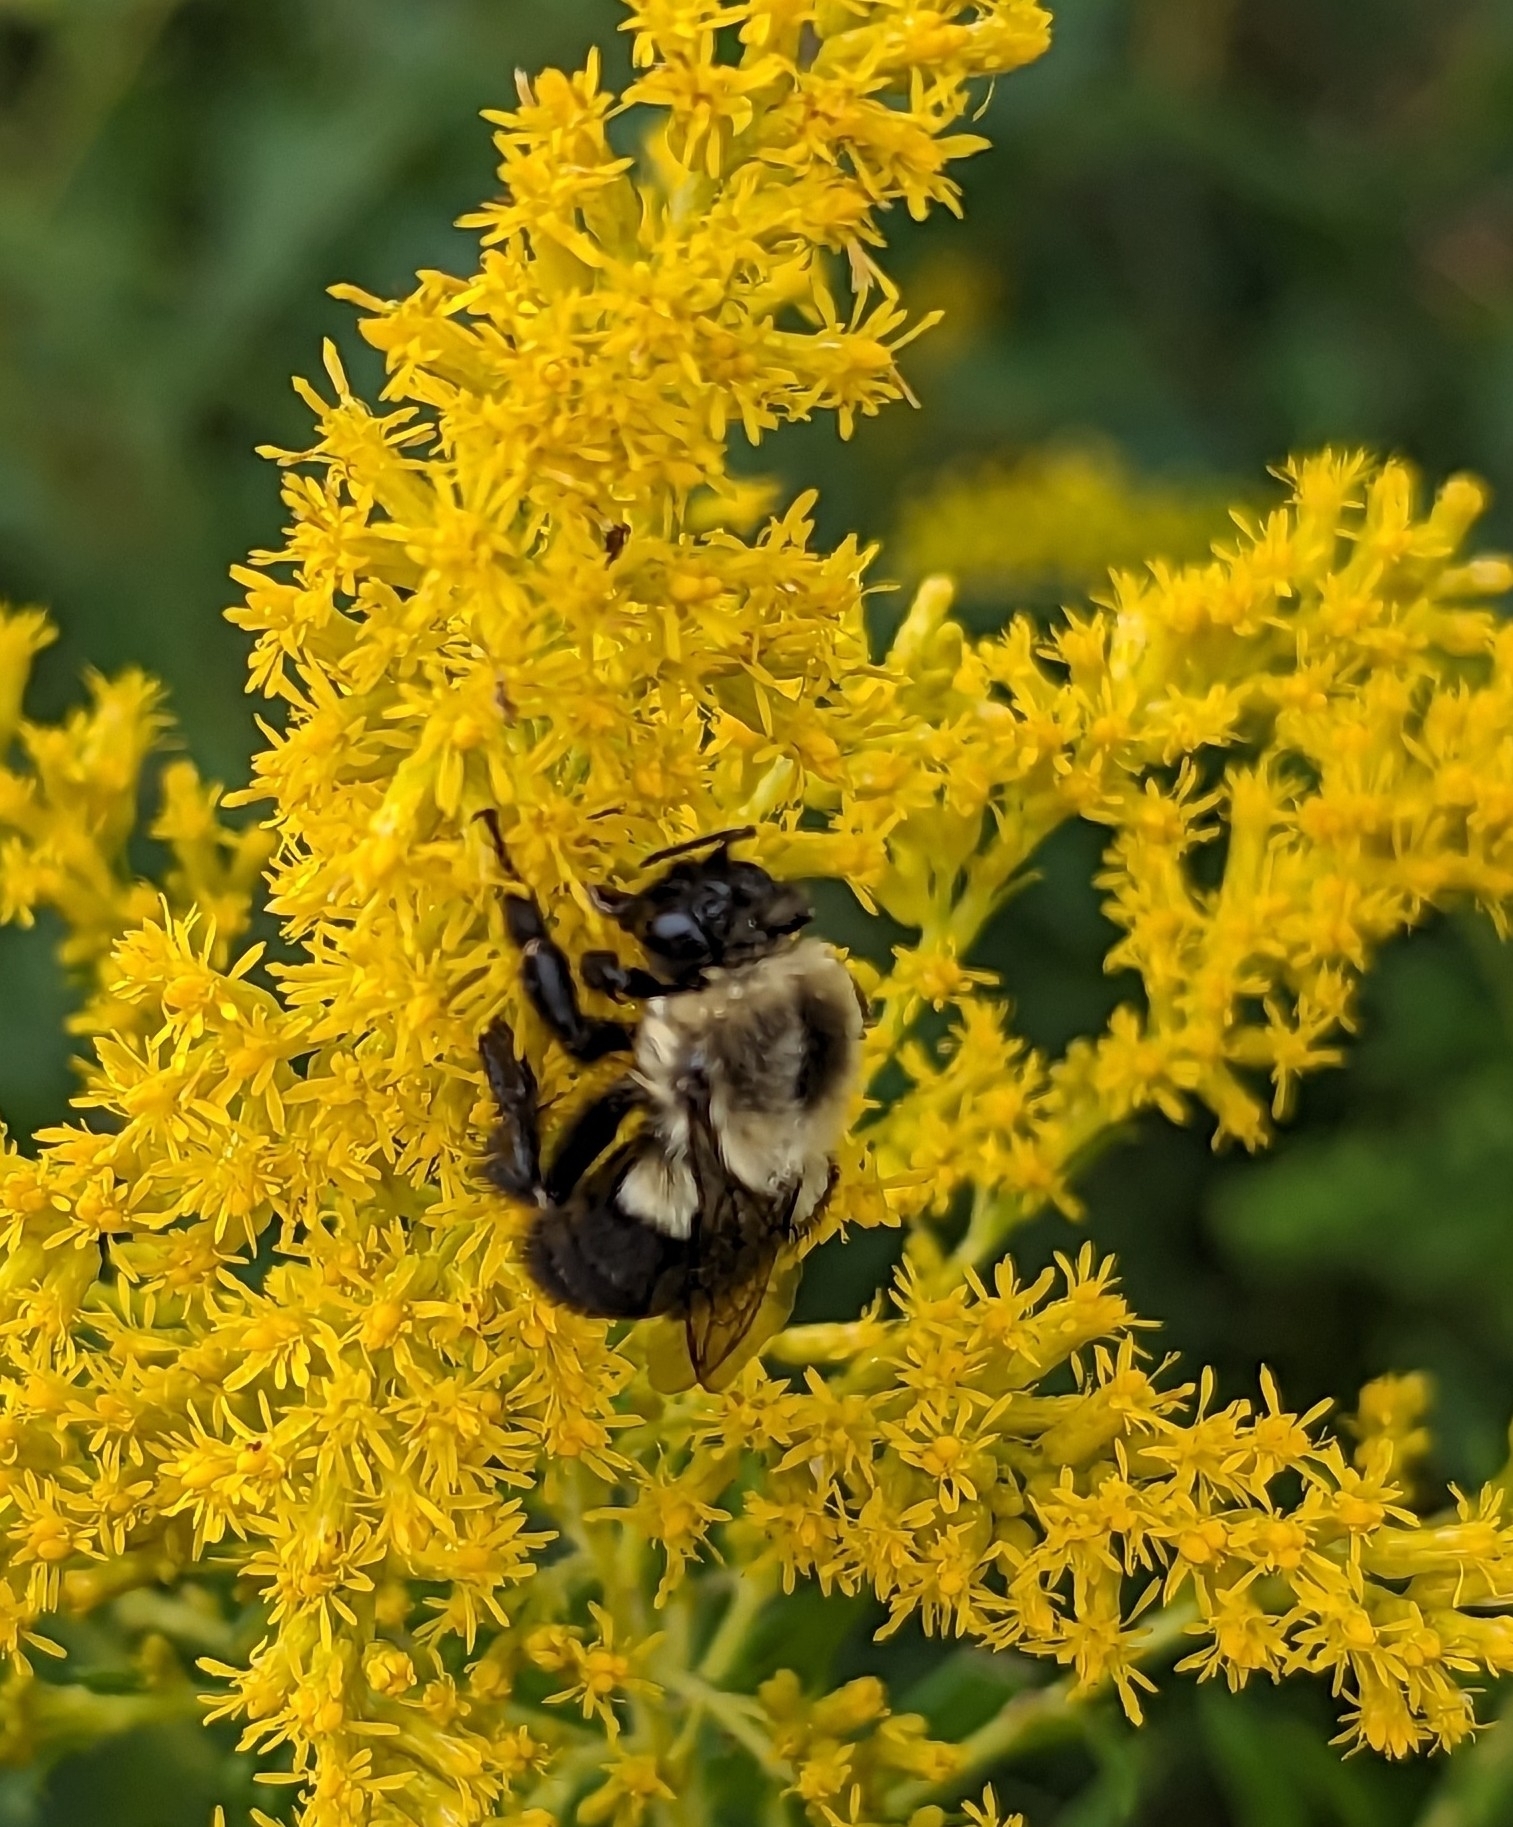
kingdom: Animalia
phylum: Arthropoda
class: Insecta
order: Hymenoptera
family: Apidae
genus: Bombus
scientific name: Bombus impatiens
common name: Common eastern bumble bee
